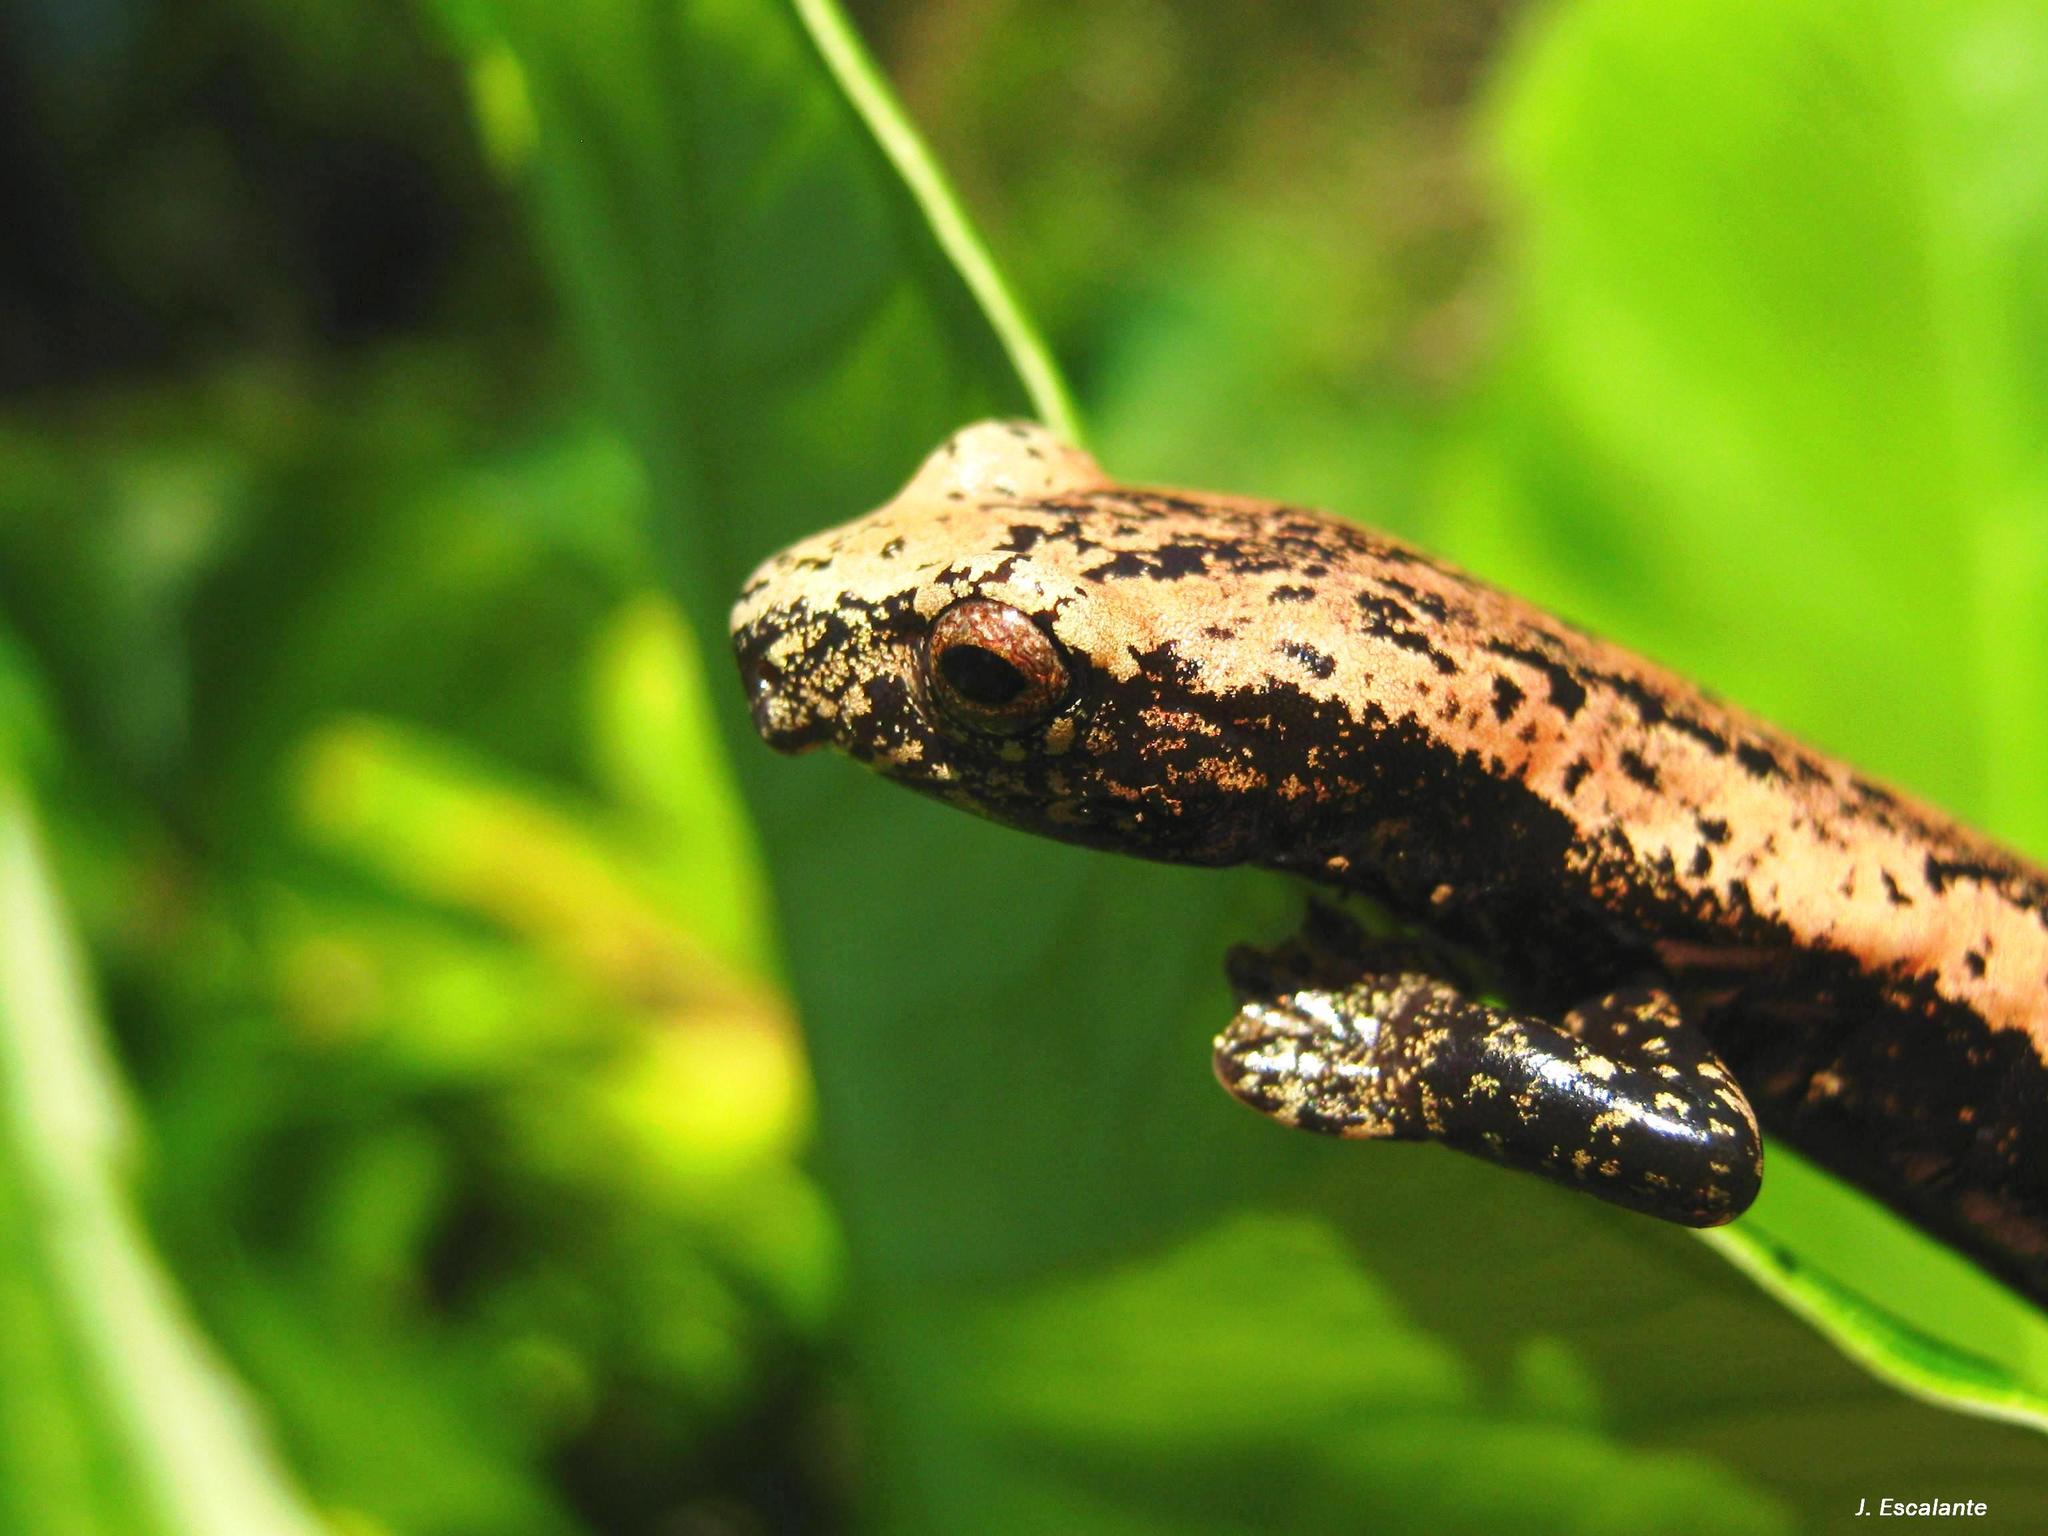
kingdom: Animalia
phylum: Chordata
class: Amphibia
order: Caudata
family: Plethodontidae
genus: Bolitoglossa
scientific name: Bolitoglossa platydactyla
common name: Broad-footed salamander
